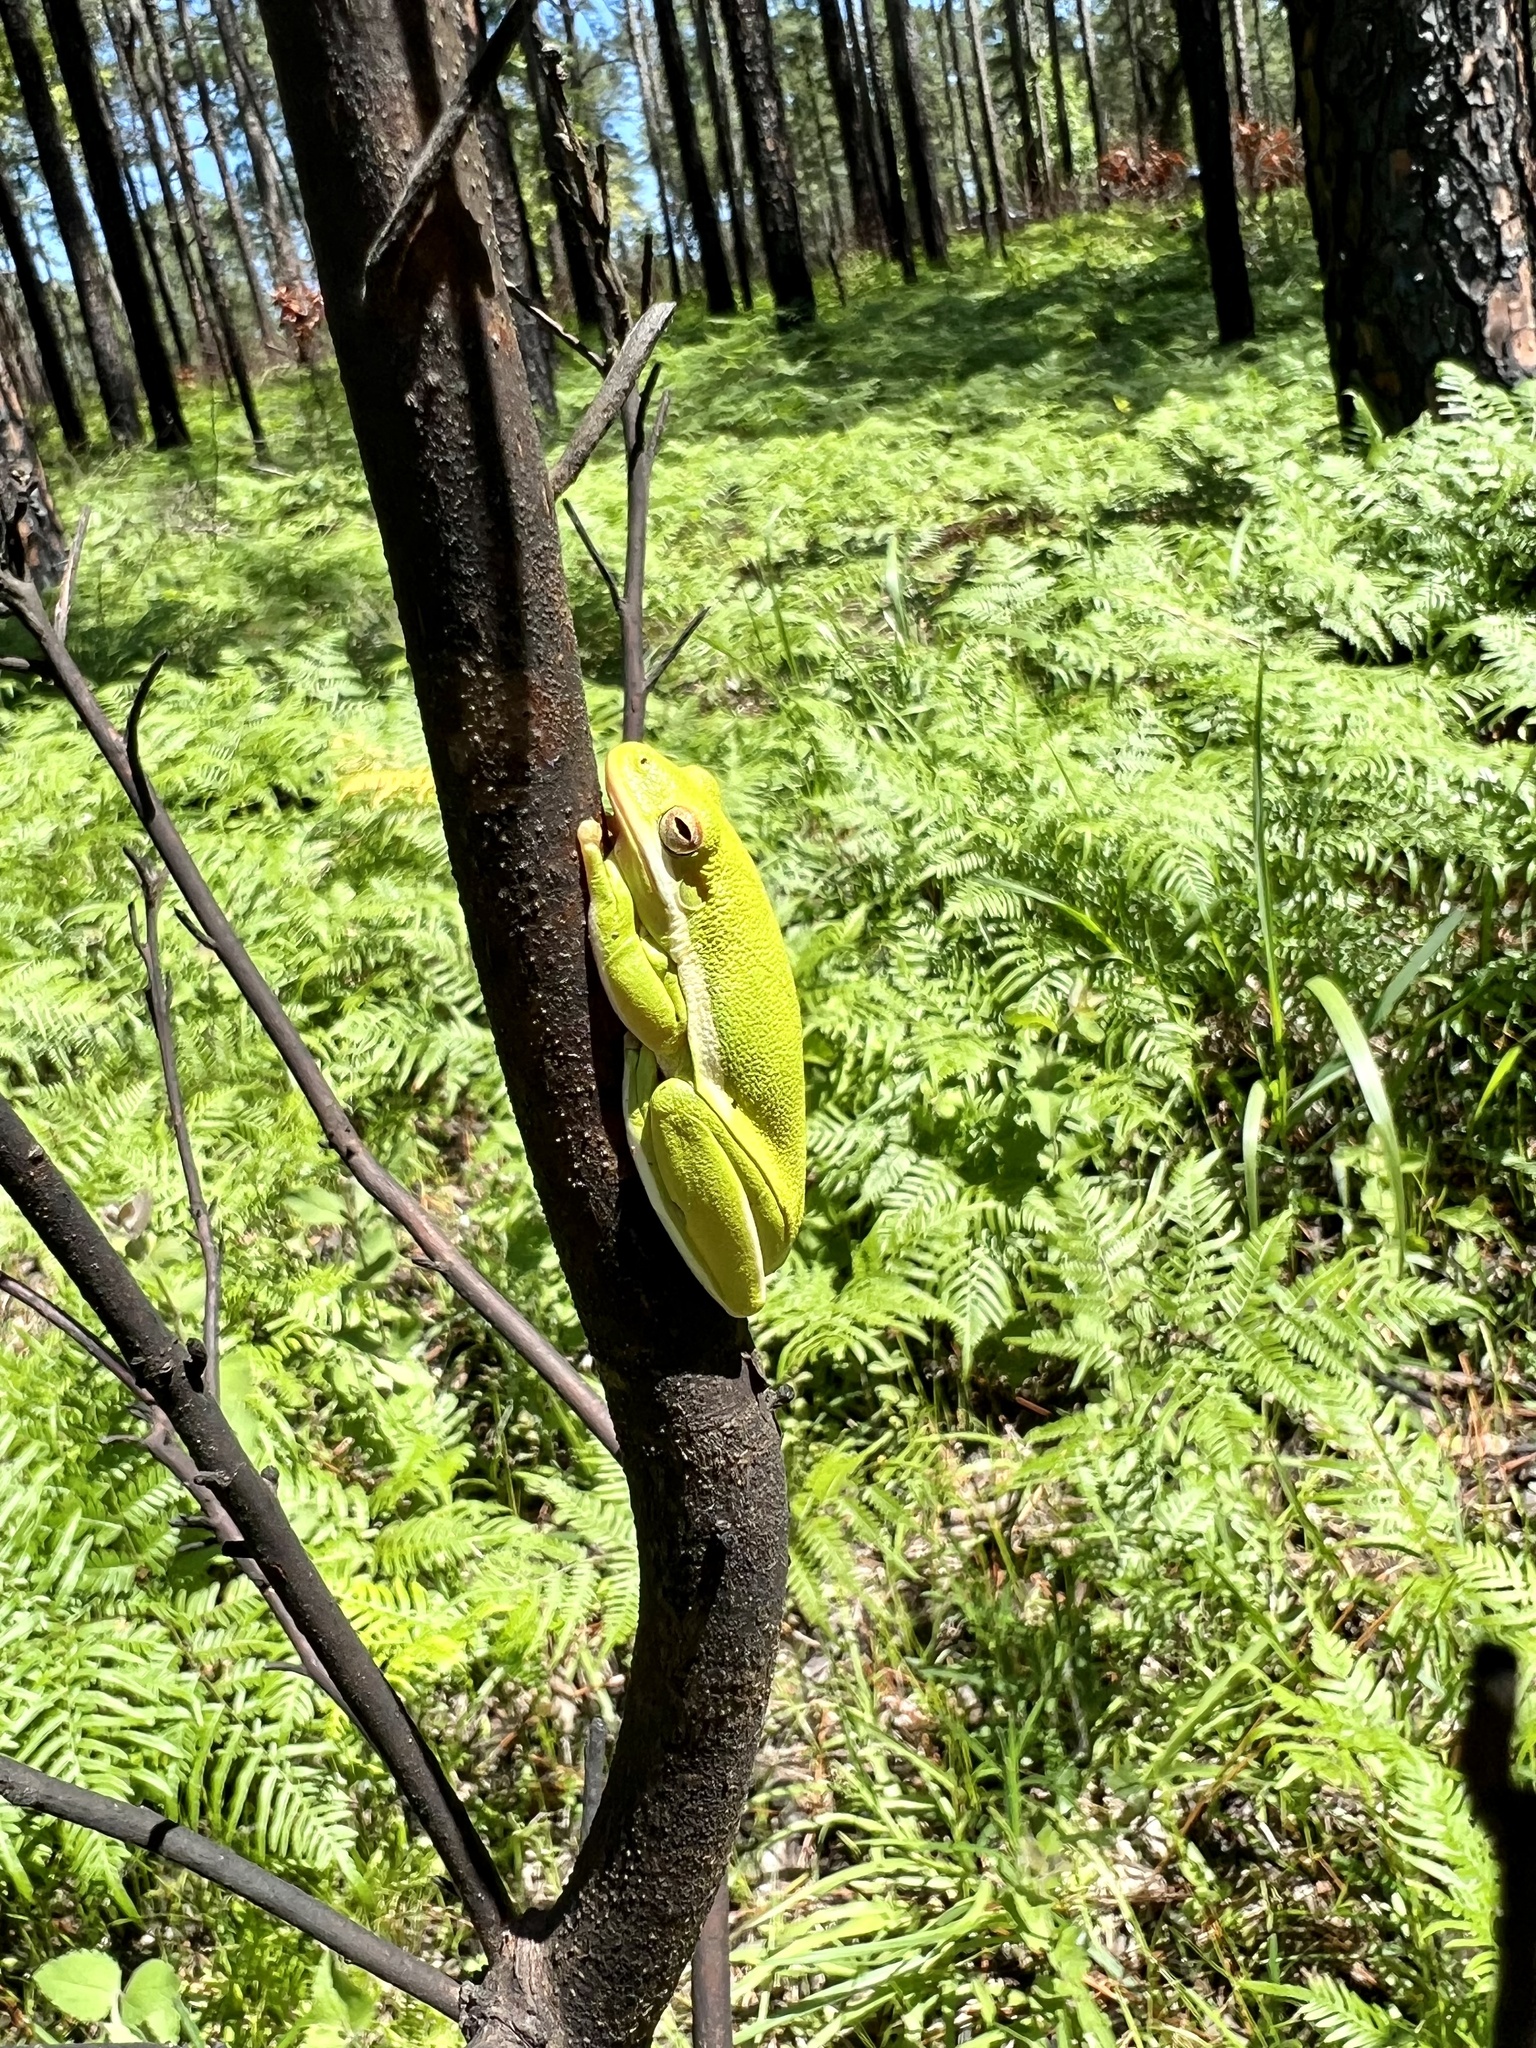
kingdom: Animalia
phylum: Chordata
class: Amphibia
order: Anura
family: Hylidae
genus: Dryophytes
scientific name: Dryophytes cinereus
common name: Green treefrog
